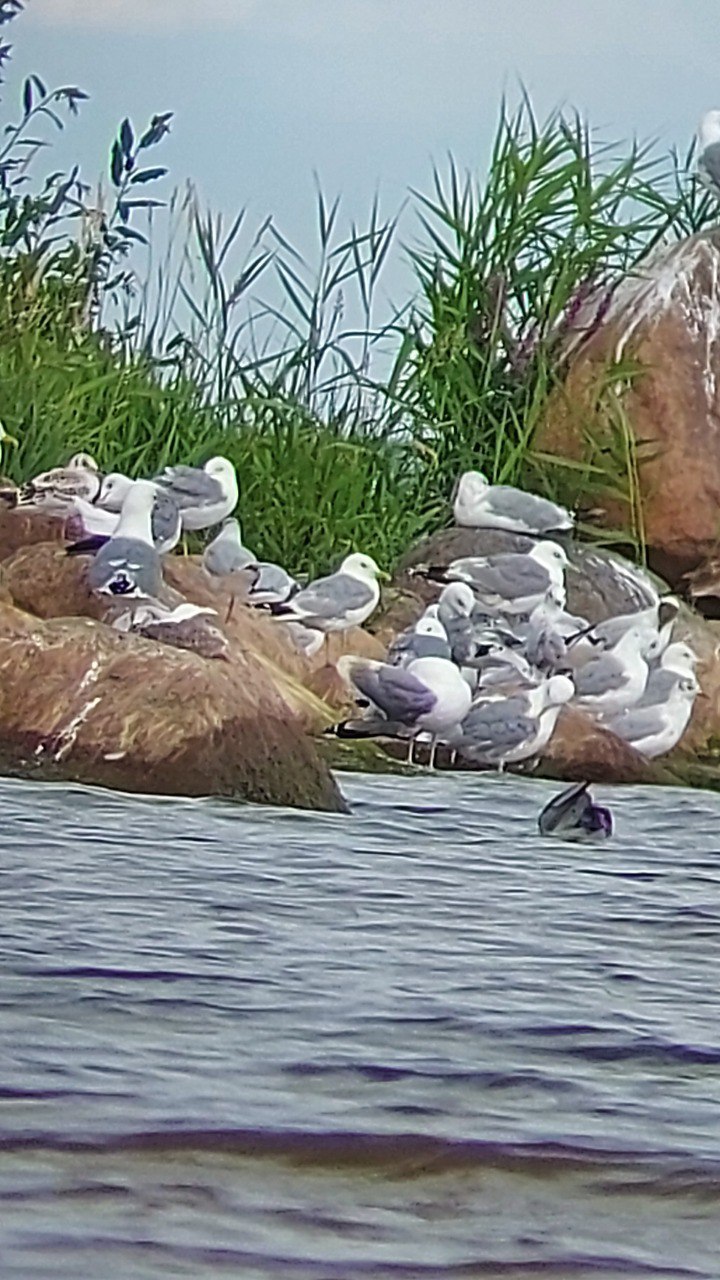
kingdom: Animalia
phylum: Chordata
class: Aves
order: Charadriiformes
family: Laridae
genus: Larus
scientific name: Larus argentatus
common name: Herring gull
